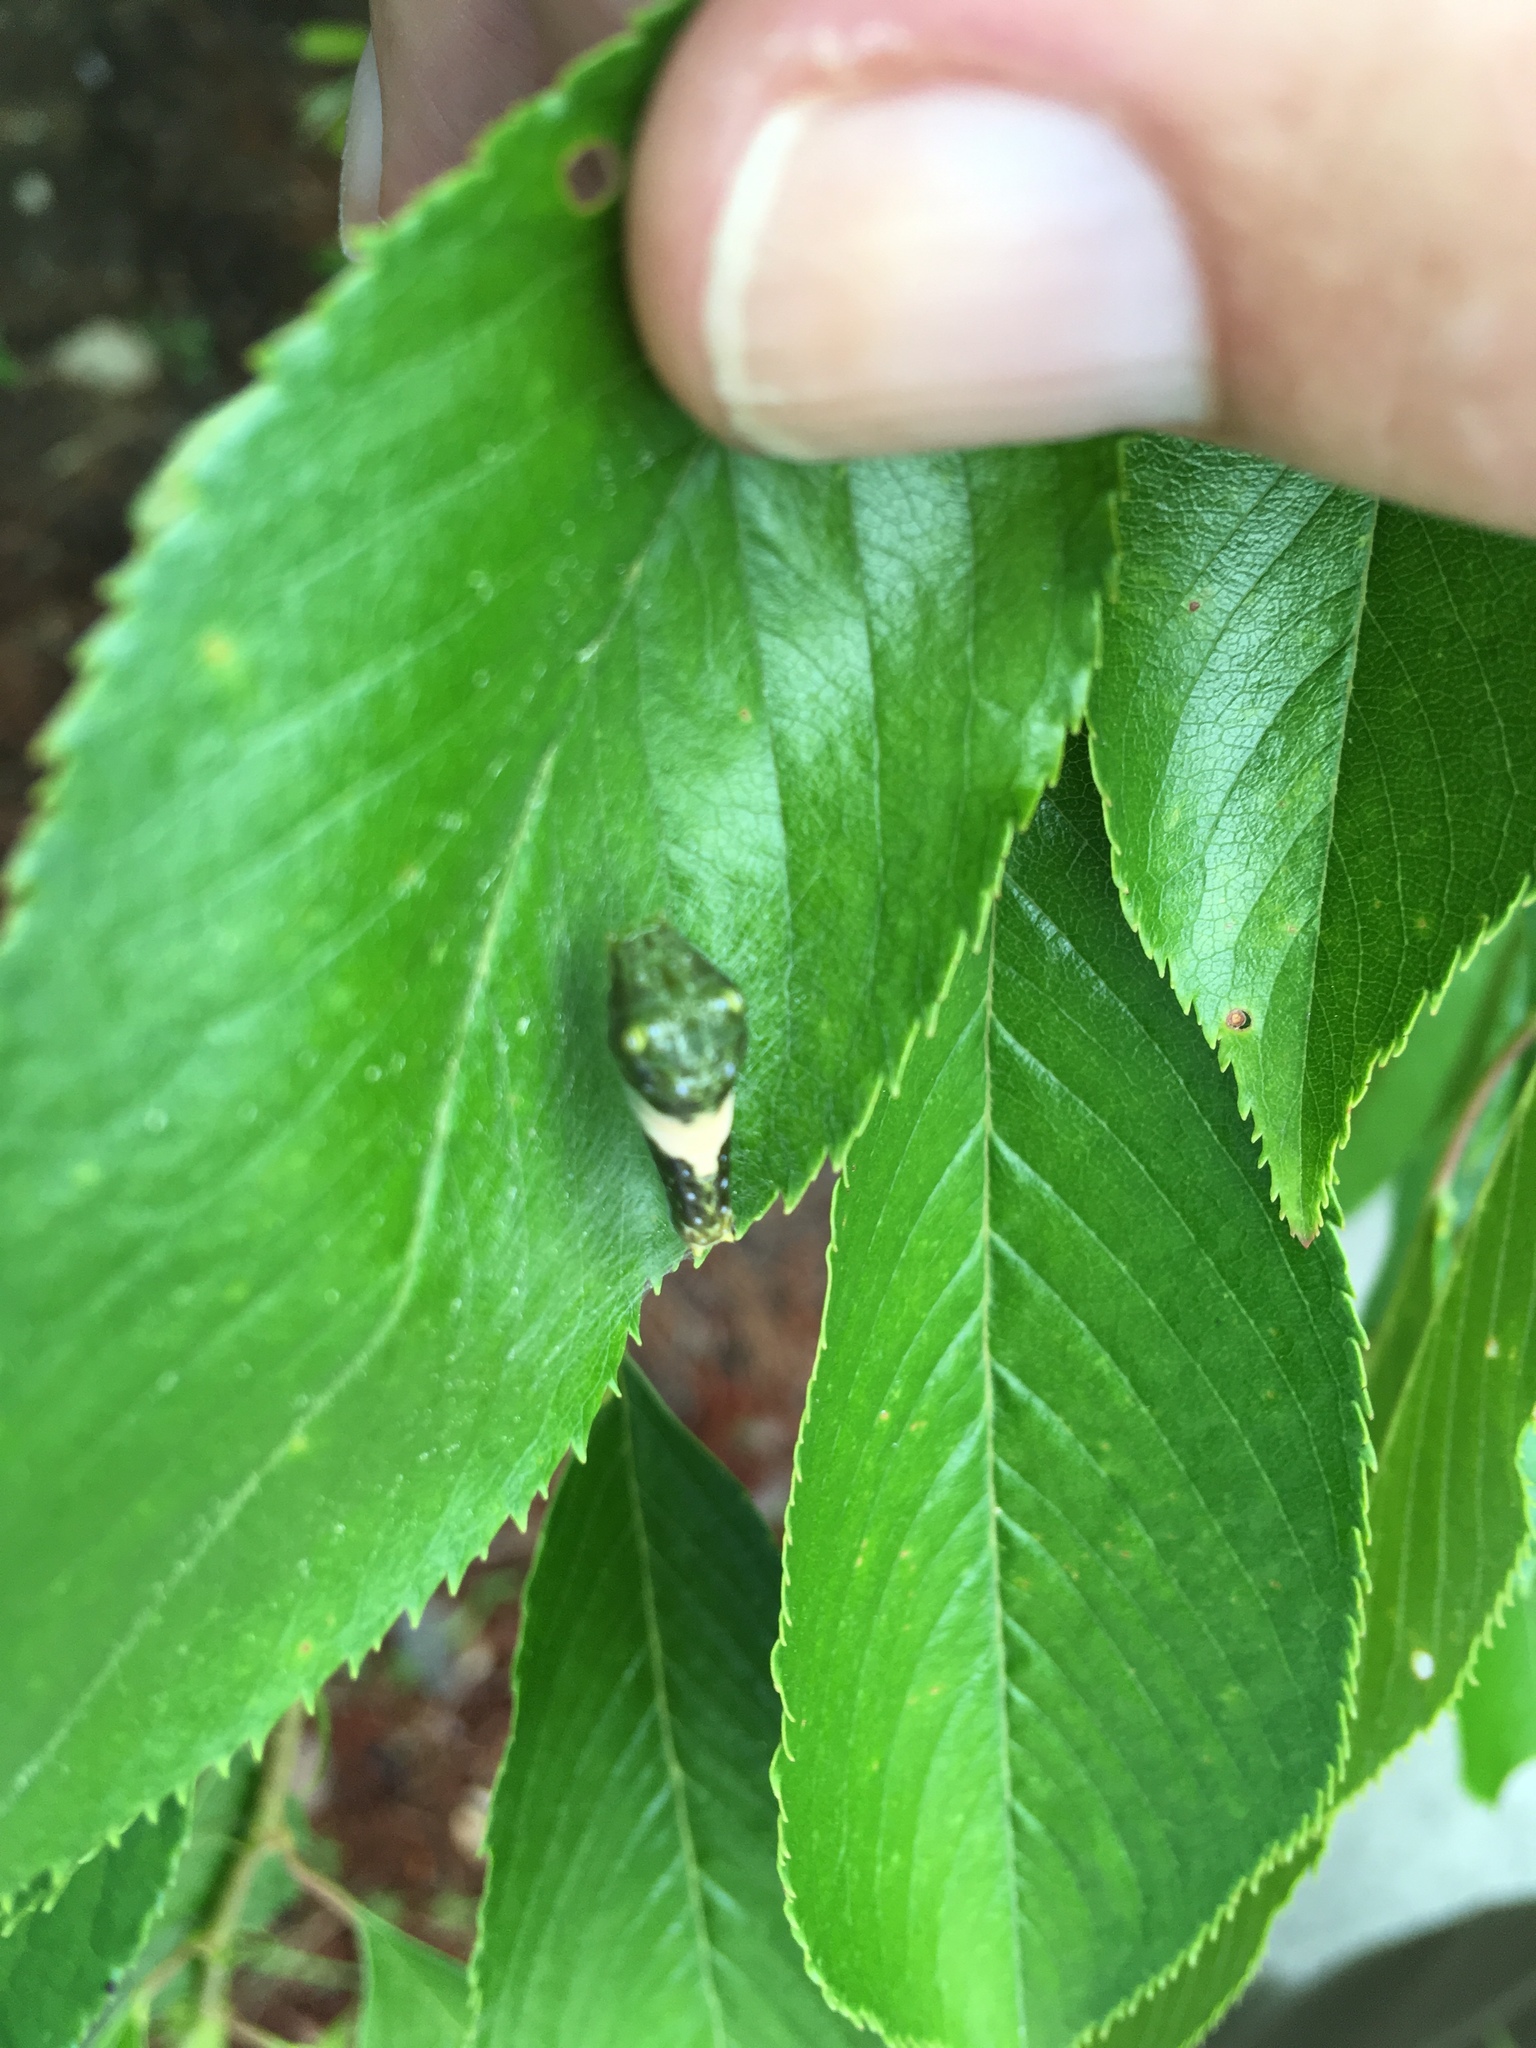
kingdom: Animalia
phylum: Arthropoda
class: Insecta
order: Lepidoptera
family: Papilionidae
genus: Papilio
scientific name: Papilio glaucus
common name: Tiger swallowtail
